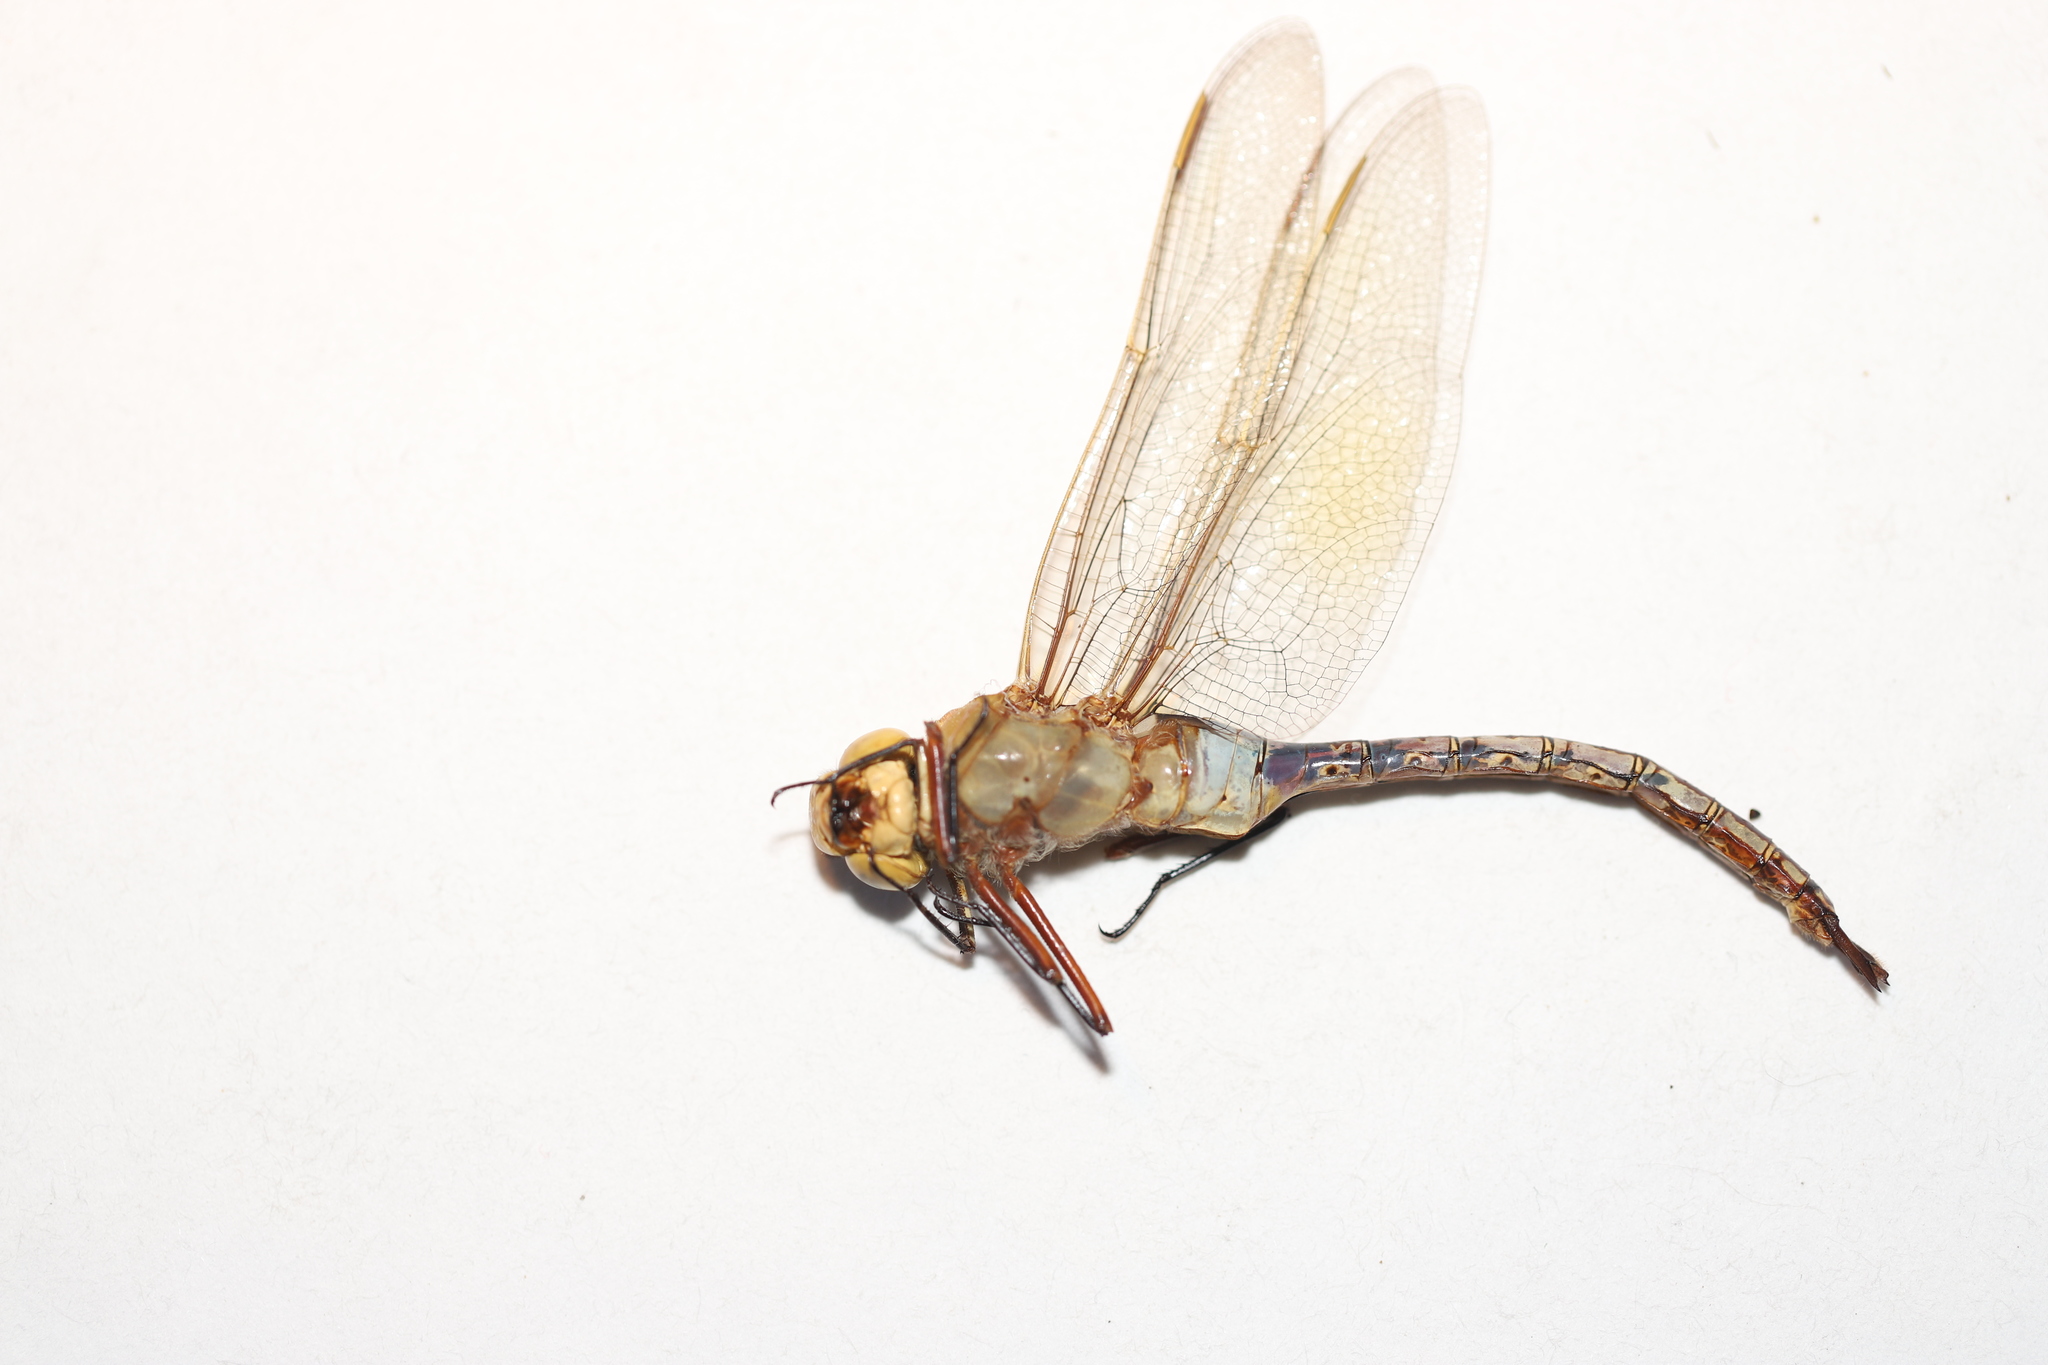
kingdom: Animalia
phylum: Arthropoda
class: Insecta
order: Odonata
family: Aeshnidae
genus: Anax
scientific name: Anax junius
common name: Common green darner
